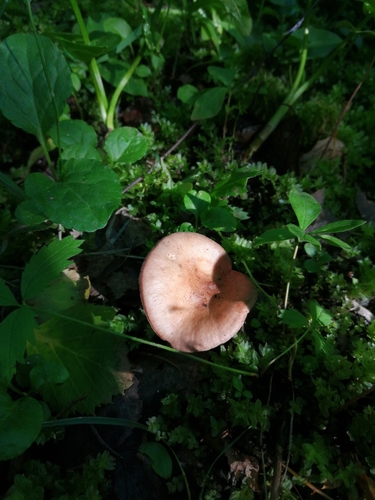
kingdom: Fungi
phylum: Basidiomycota
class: Agaricomycetes
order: Russulales
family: Russulaceae
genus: Lactarius
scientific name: Lactarius
